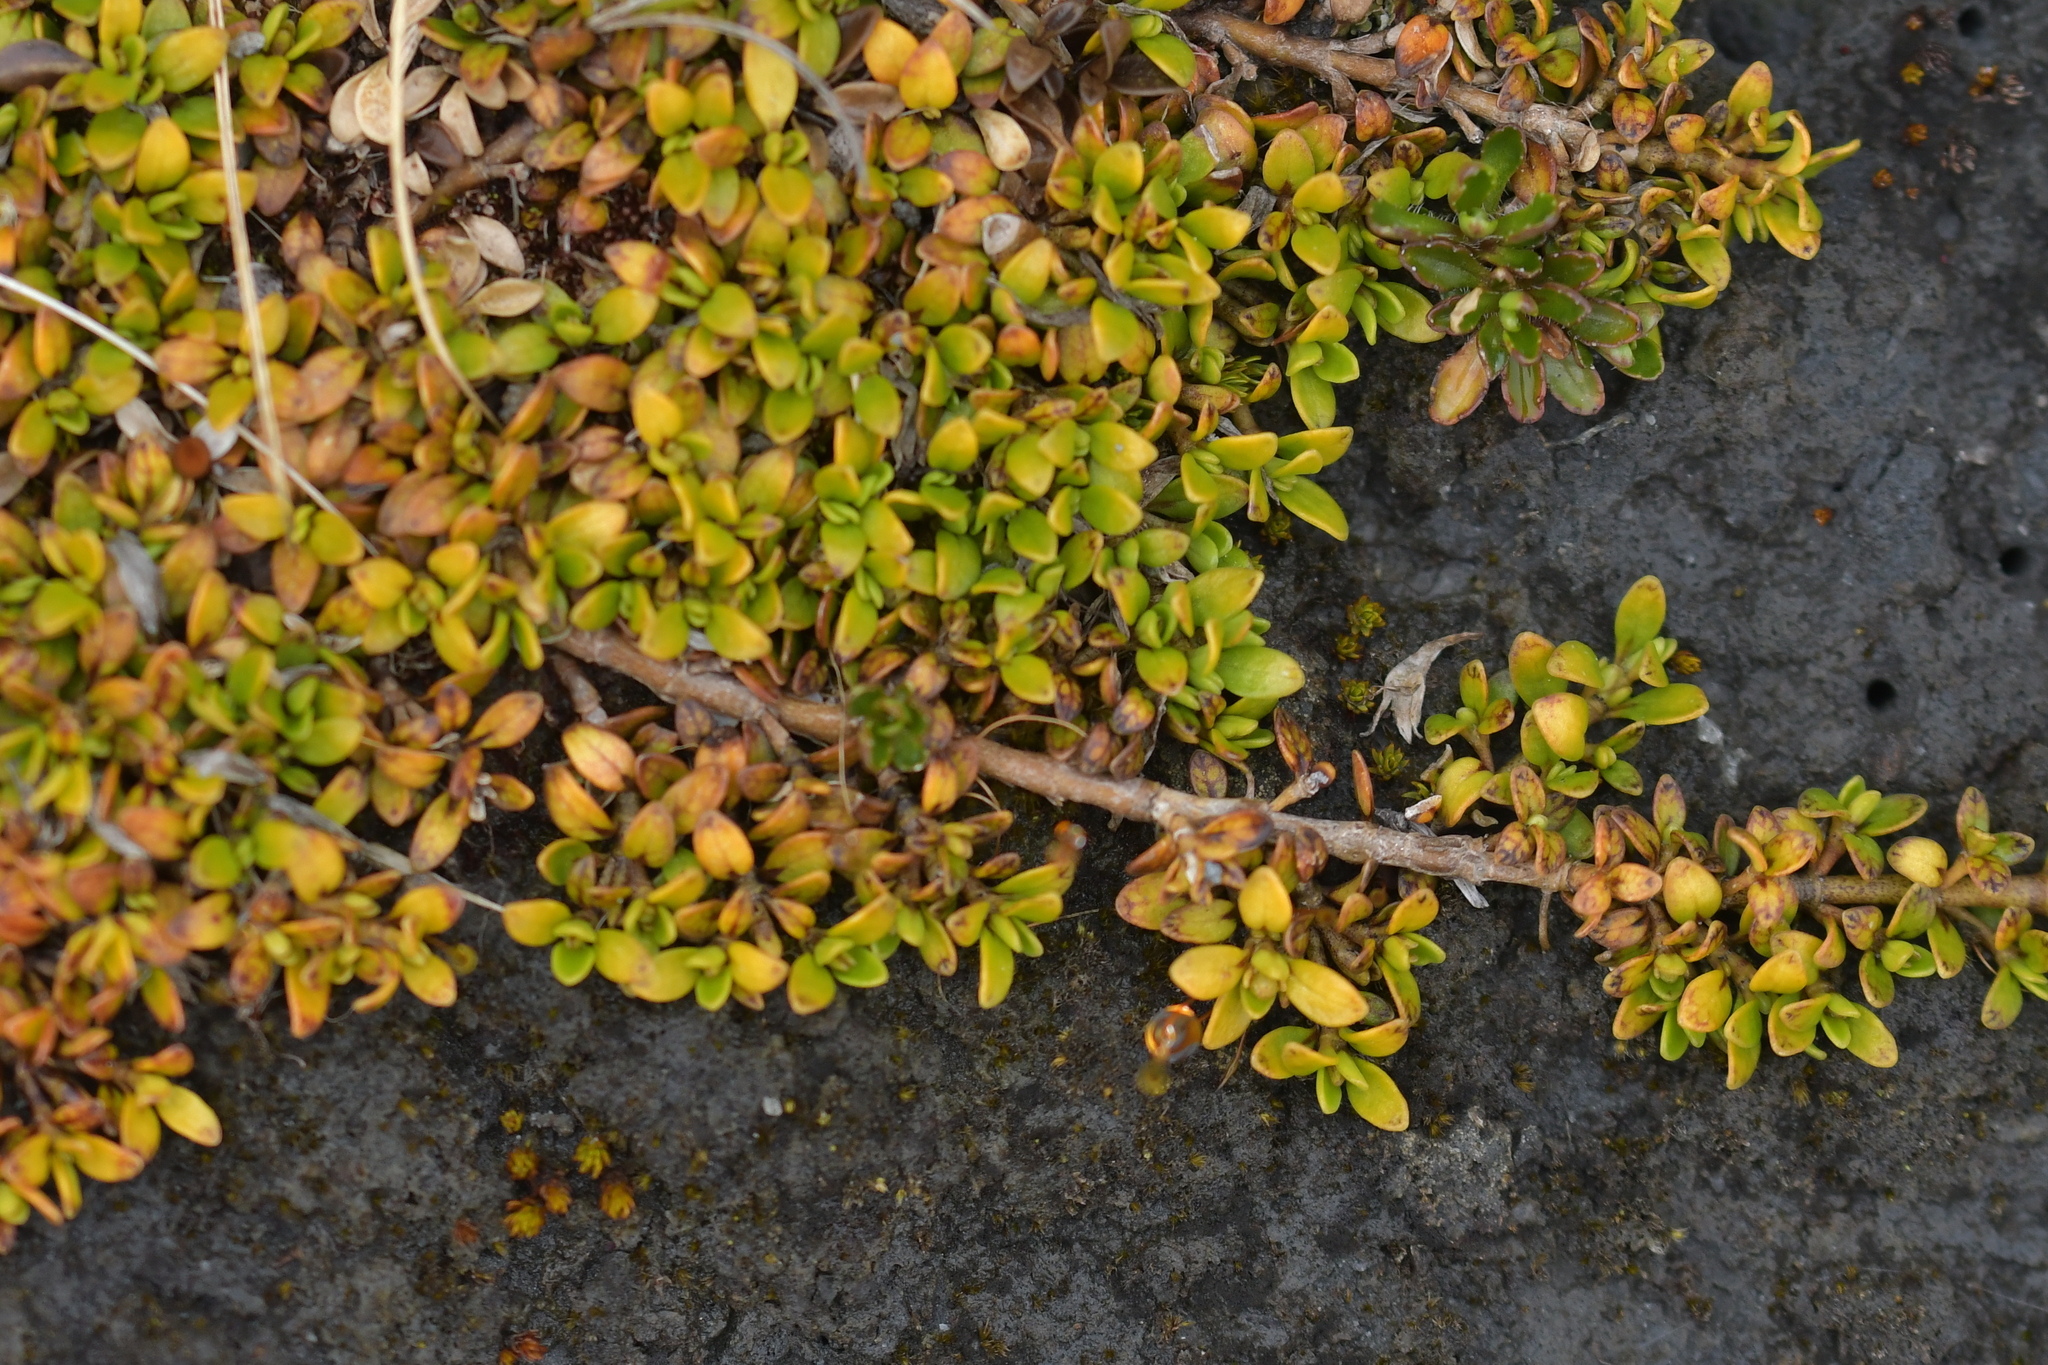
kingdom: Plantae
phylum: Tracheophyta
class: Magnoliopsida
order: Gentianales
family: Rubiaceae
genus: Coprosma
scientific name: Coprosma perpusilla
